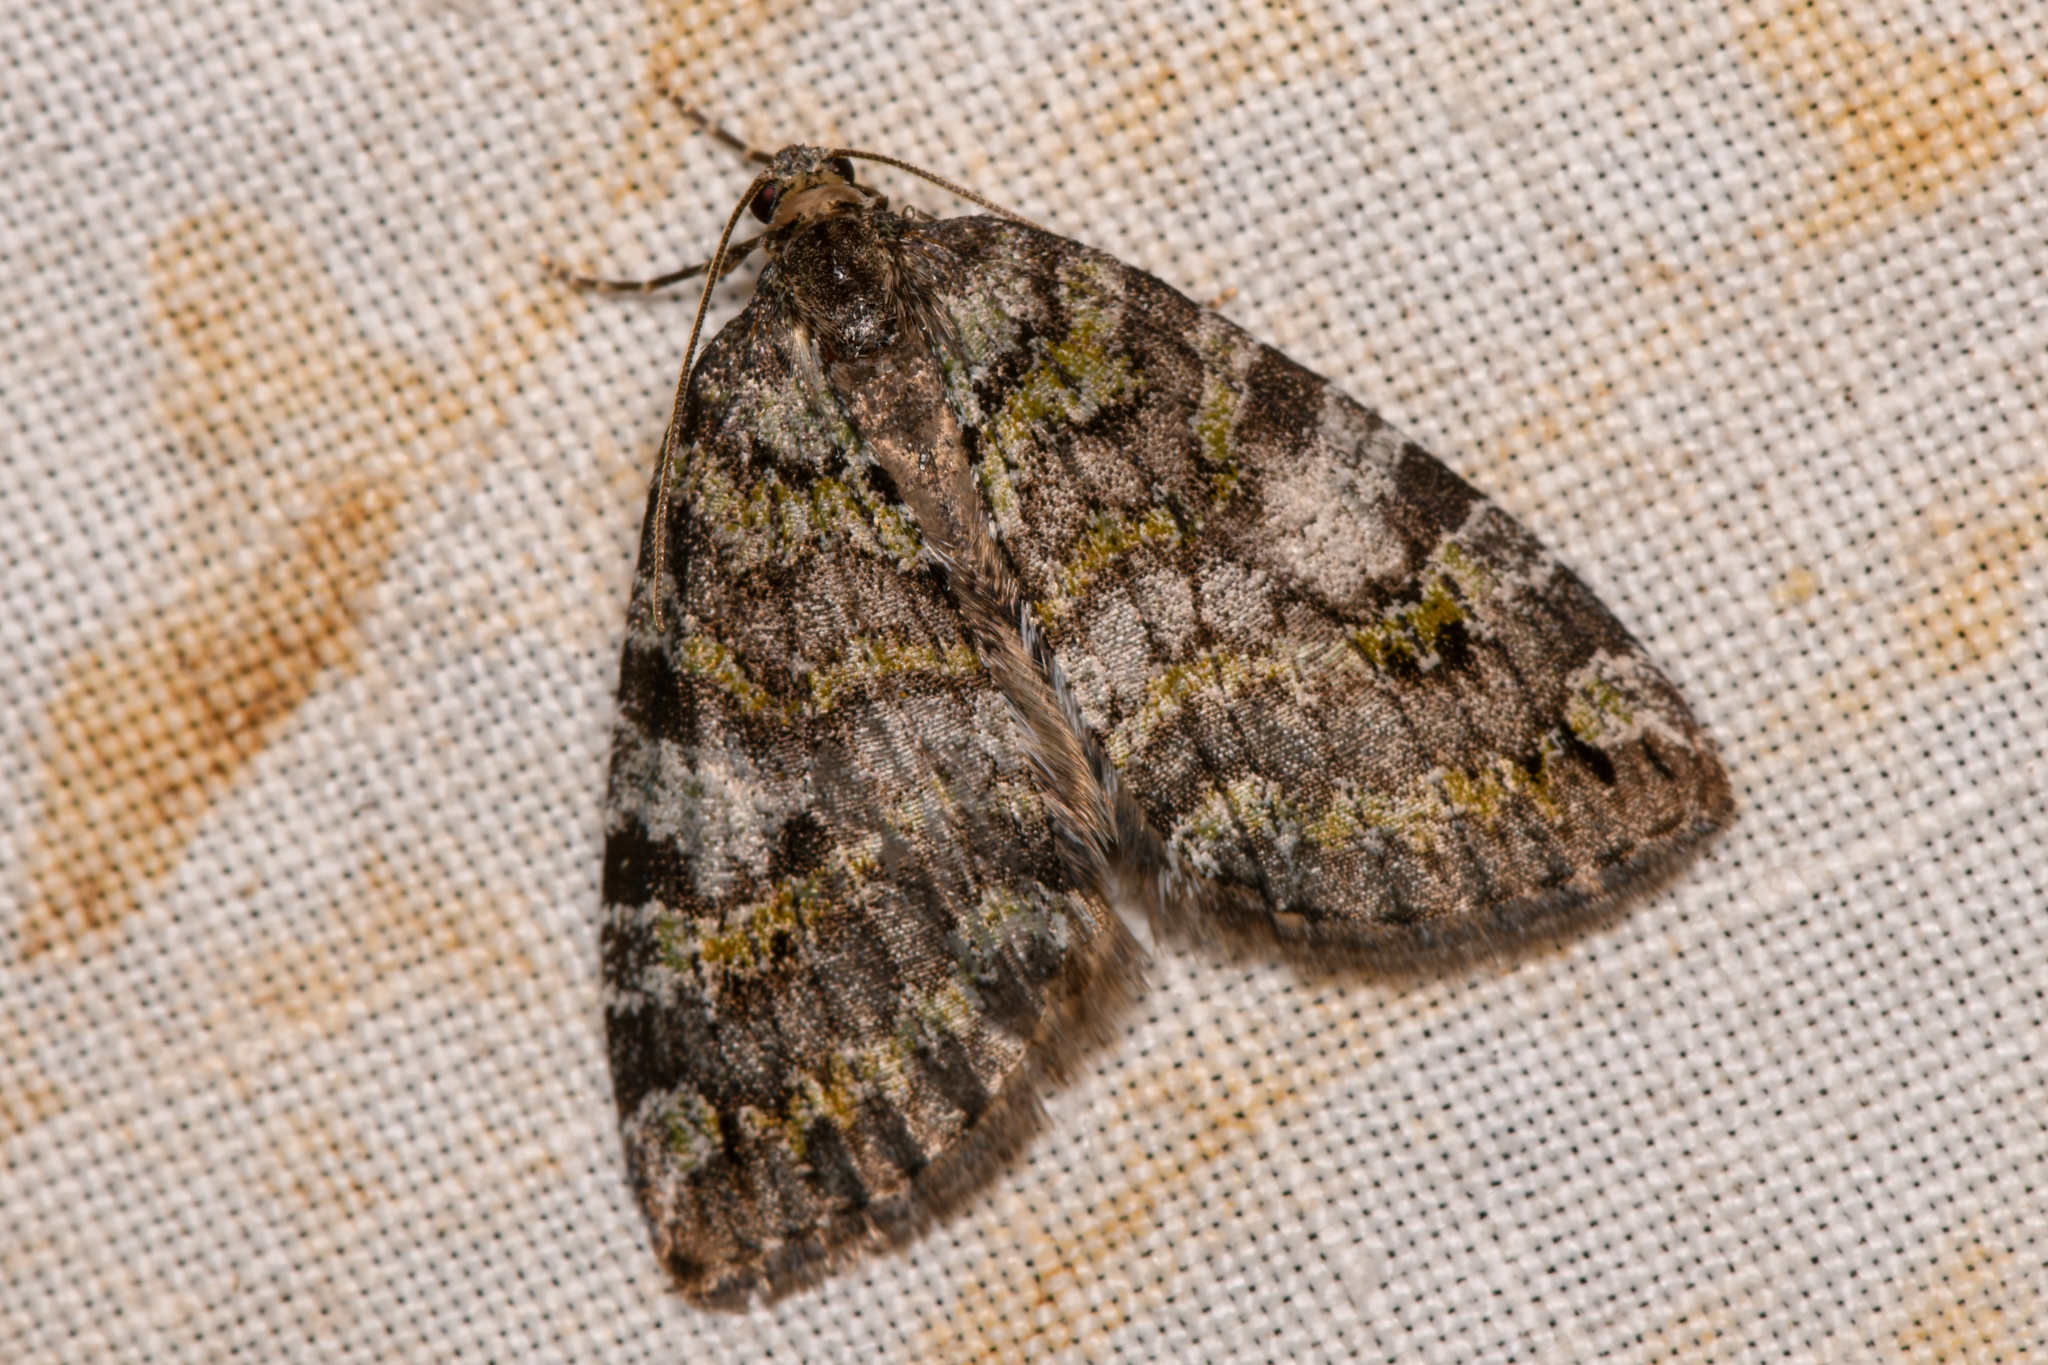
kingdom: Animalia
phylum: Arthropoda
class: Insecta
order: Lepidoptera
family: Geometridae
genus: Hydriomena
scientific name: Hydriomena nubilofasciata
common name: Oak winter highflier moth
